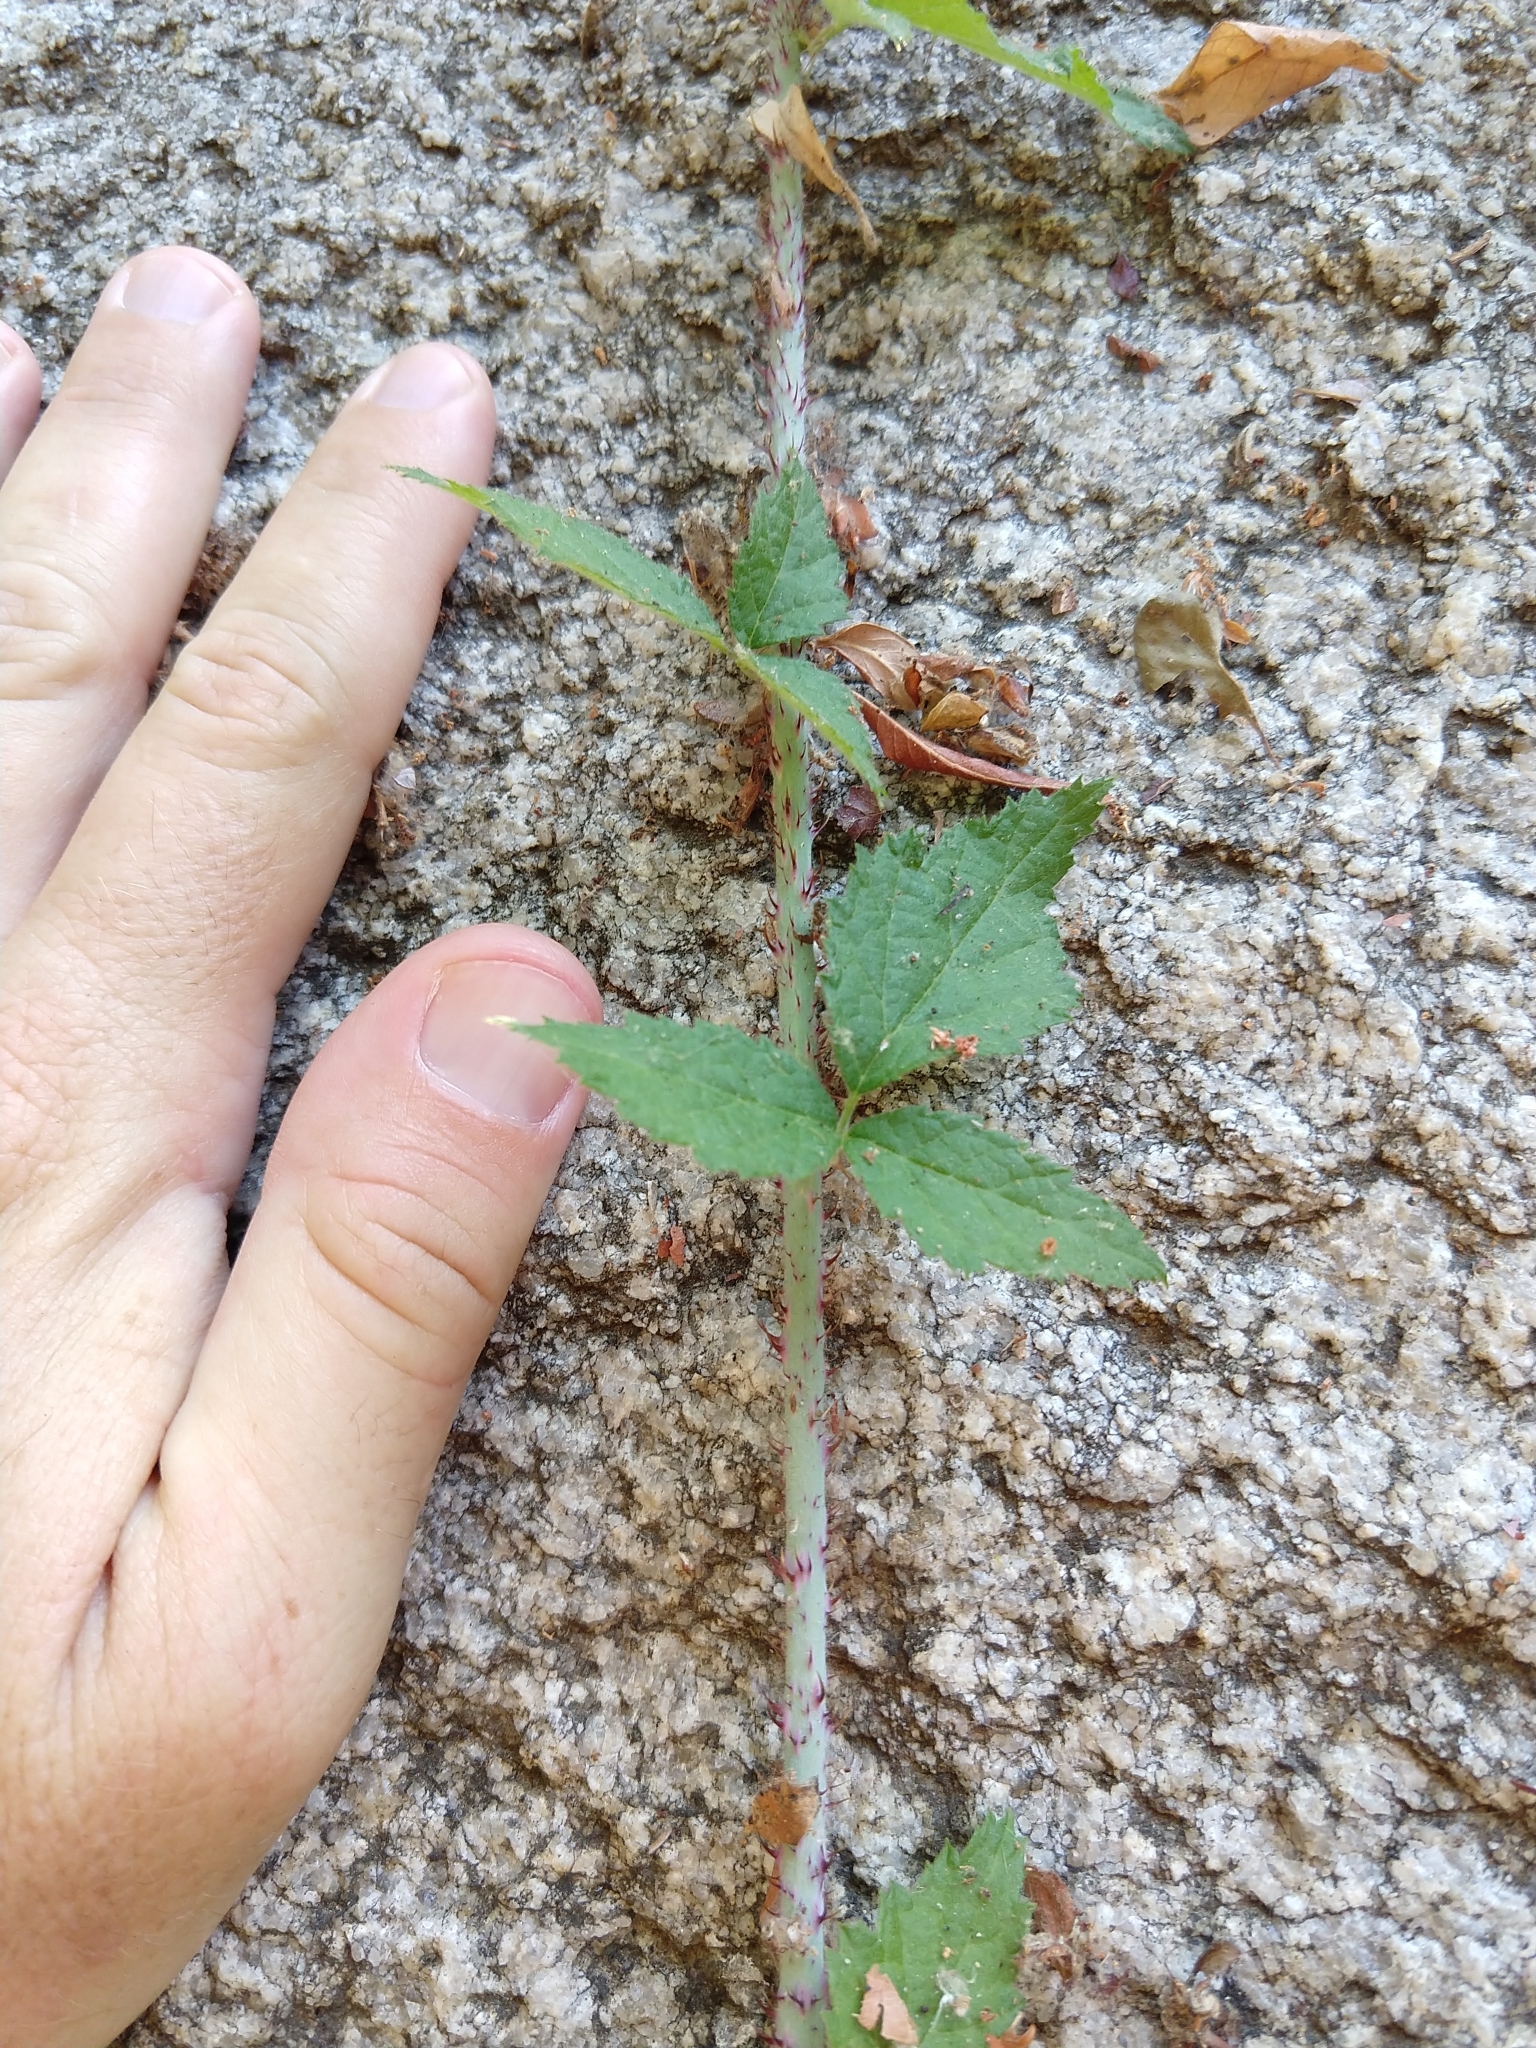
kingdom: Plantae
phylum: Tracheophyta
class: Magnoliopsida
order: Rosales
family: Rosaceae
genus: Rubus
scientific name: Rubus ursinus
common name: Pacific blackberry
